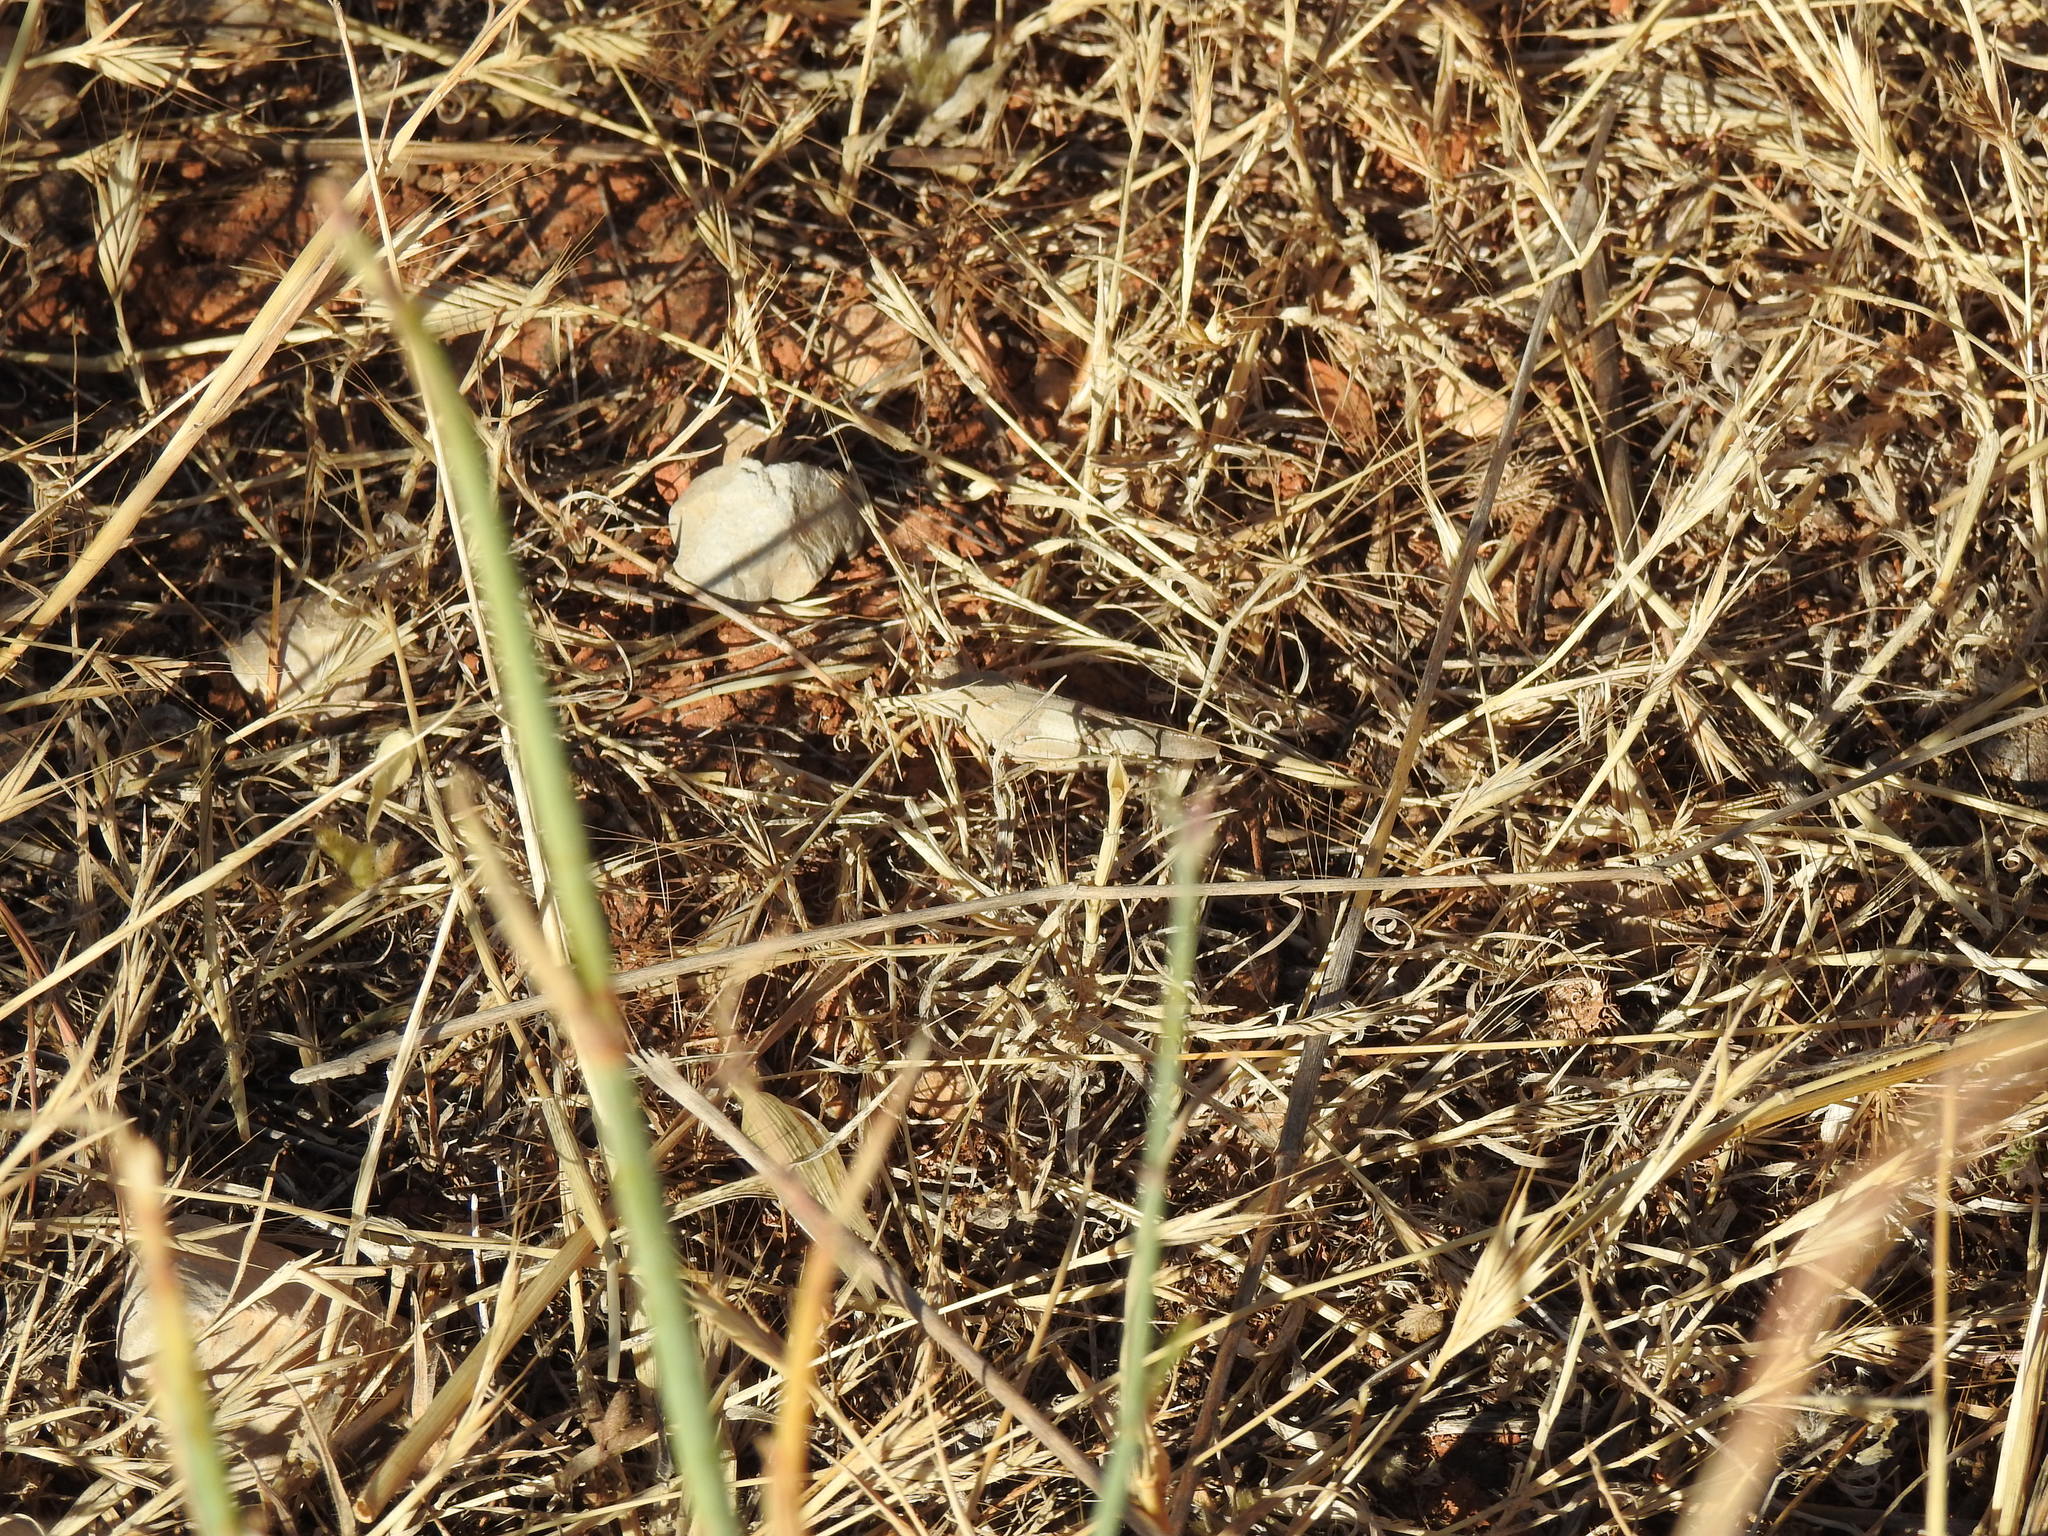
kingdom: Animalia
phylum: Arthropoda
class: Insecta
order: Orthoptera
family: Acrididae
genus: Oedipoda
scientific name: Oedipoda caerulescens
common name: Blue-winged grasshopper
